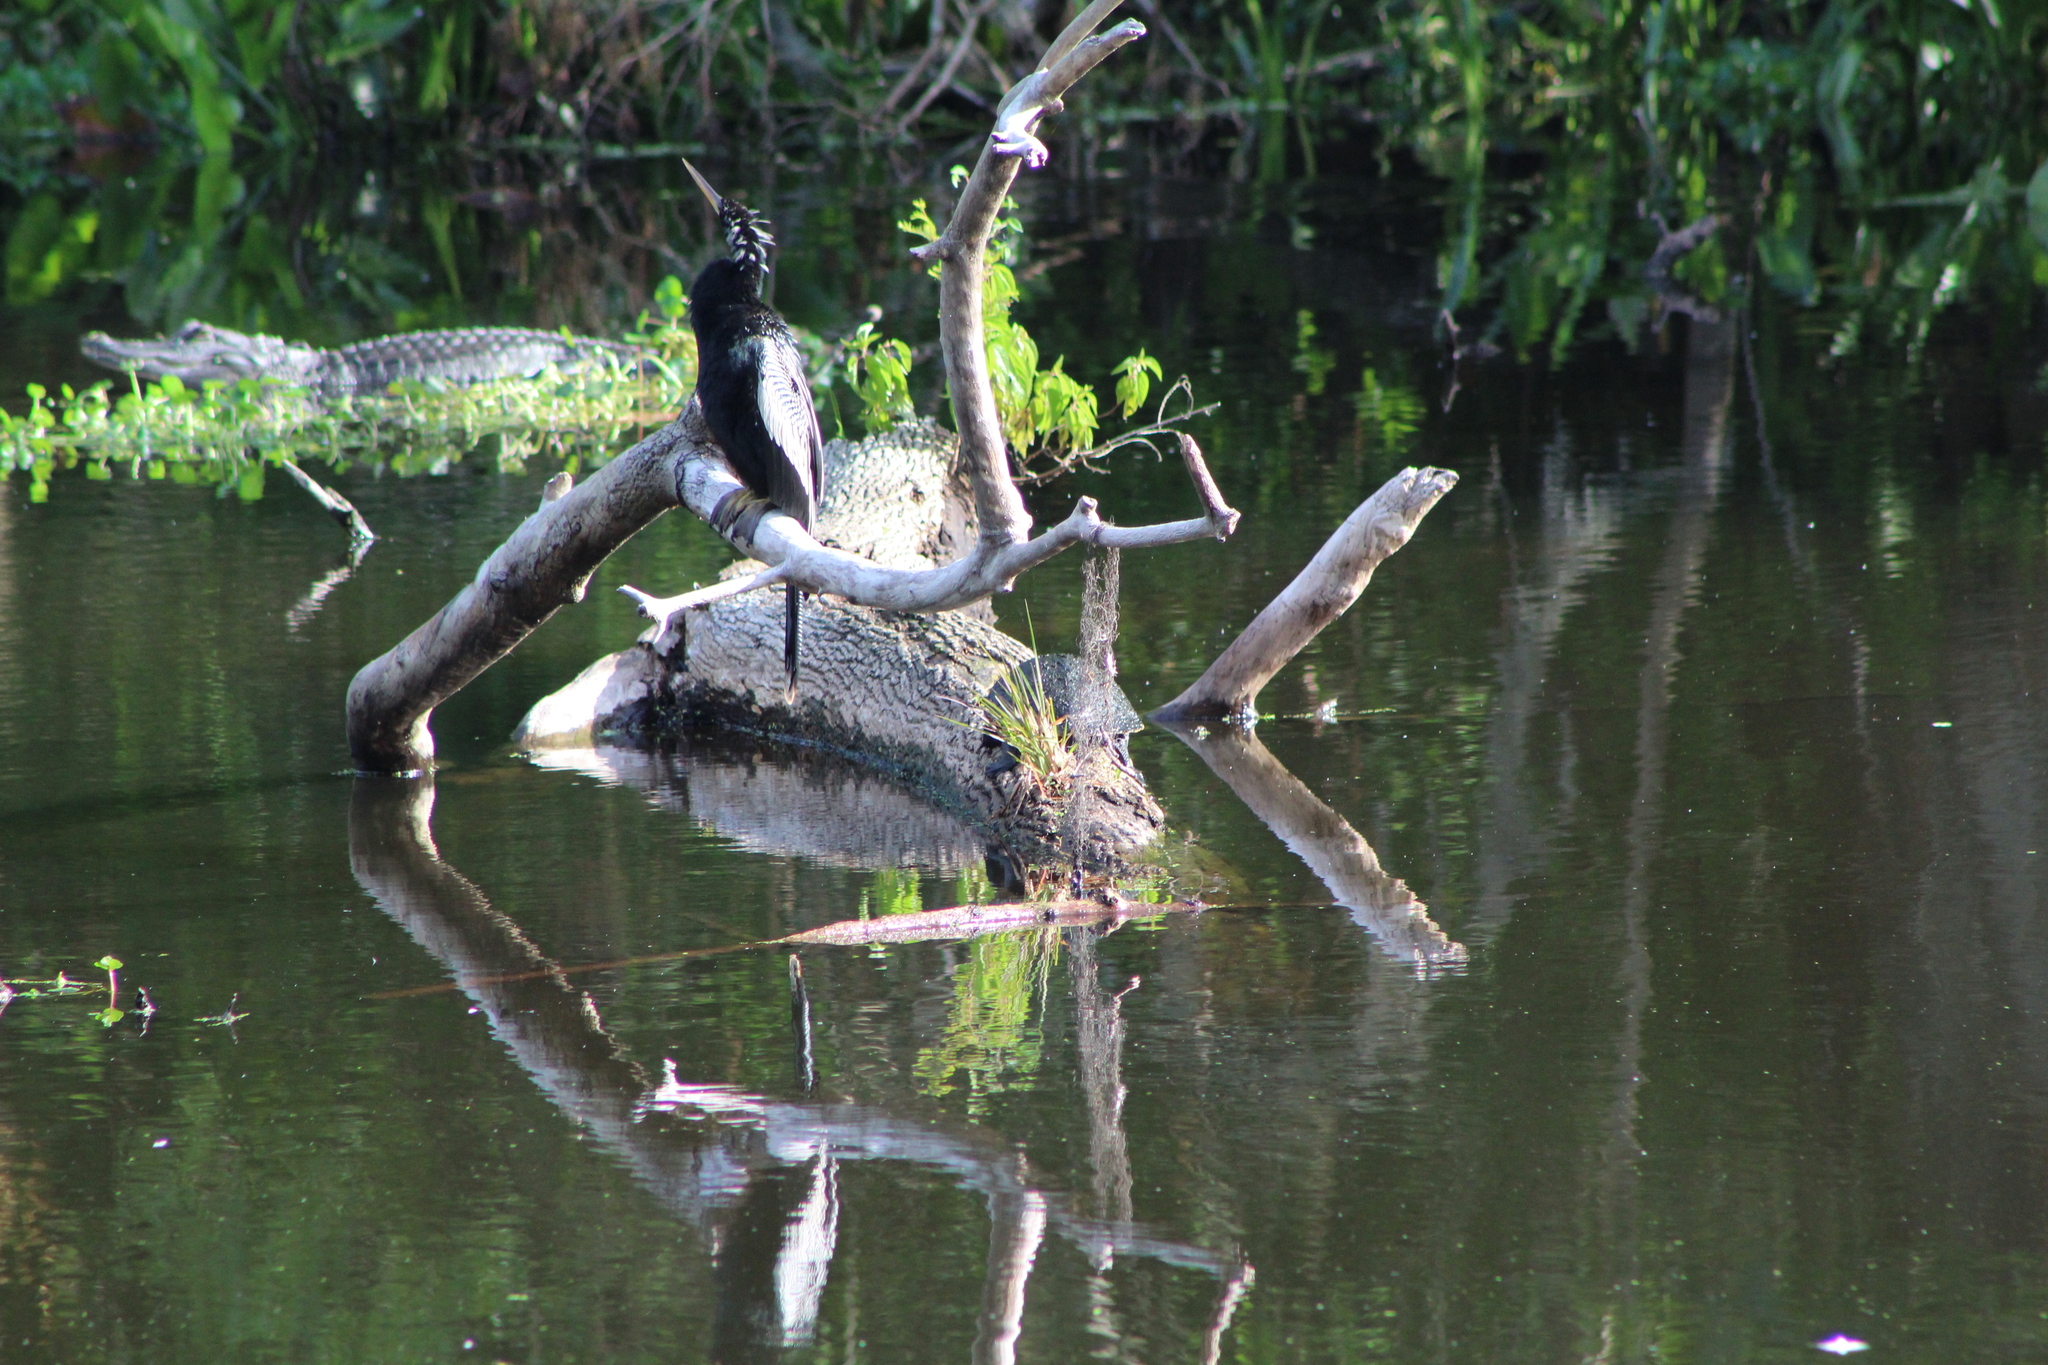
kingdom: Animalia
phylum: Chordata
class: Aves
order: Suliformes
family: Anhingidae
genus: Anhinga
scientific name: Anhinga anhinga
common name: Anhinga
